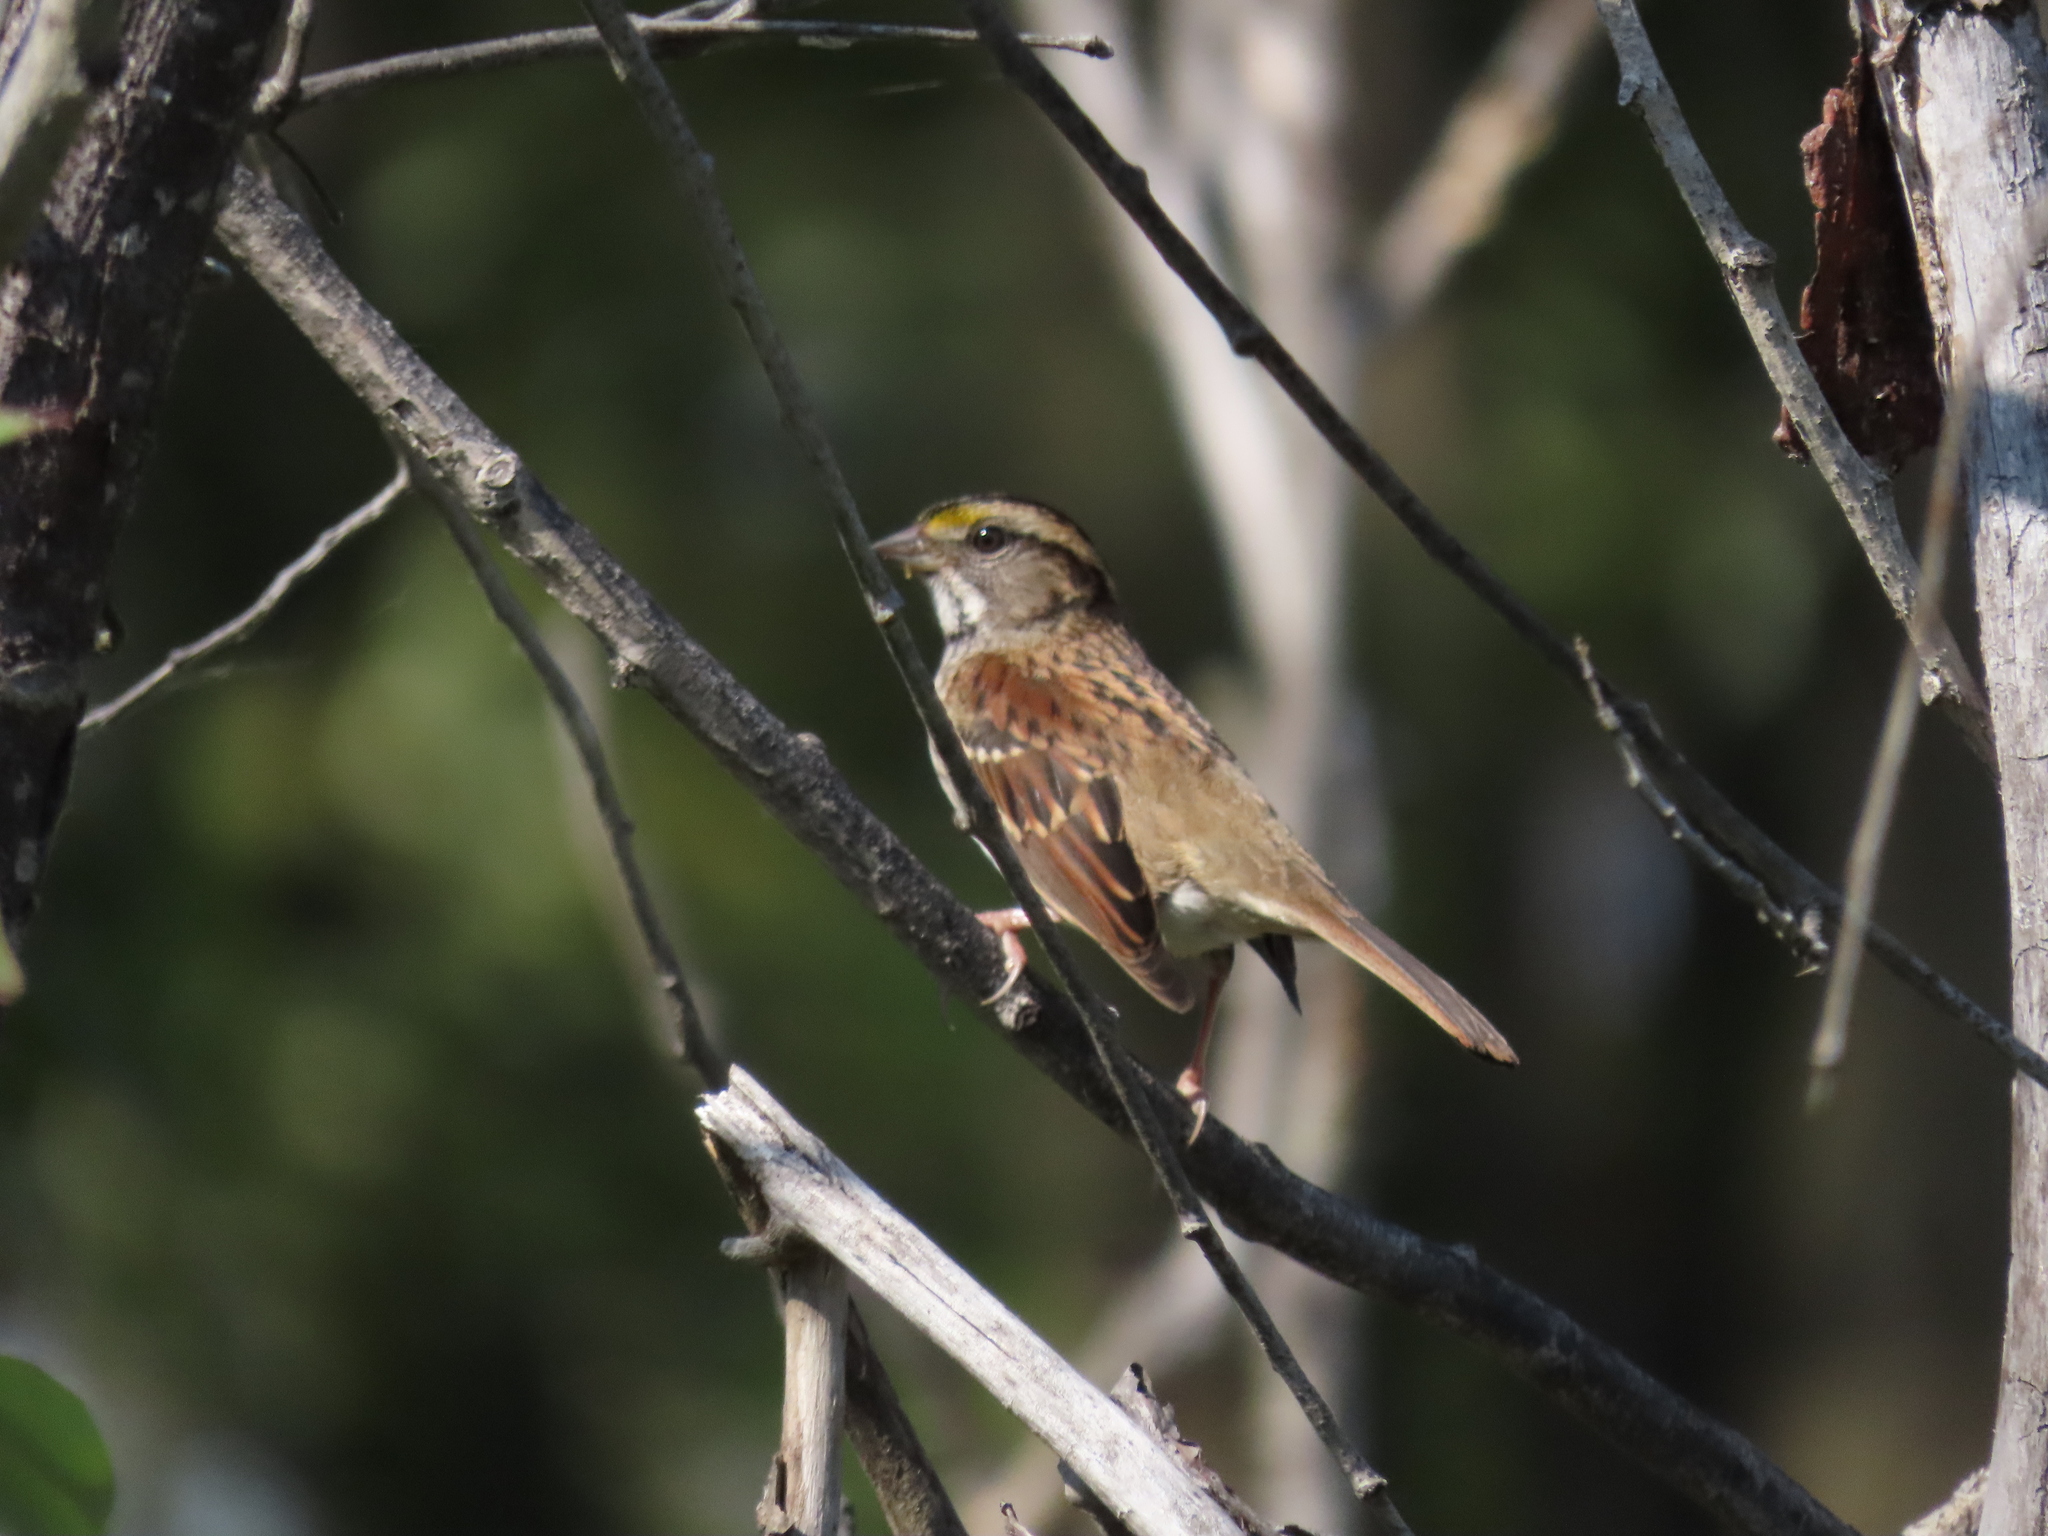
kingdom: Animalia
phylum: Chordata
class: Aves
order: Passeriformes
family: Passerellidae
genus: Zonotrichia
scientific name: Zonotrichia albicollis
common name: White-throated sparrow
